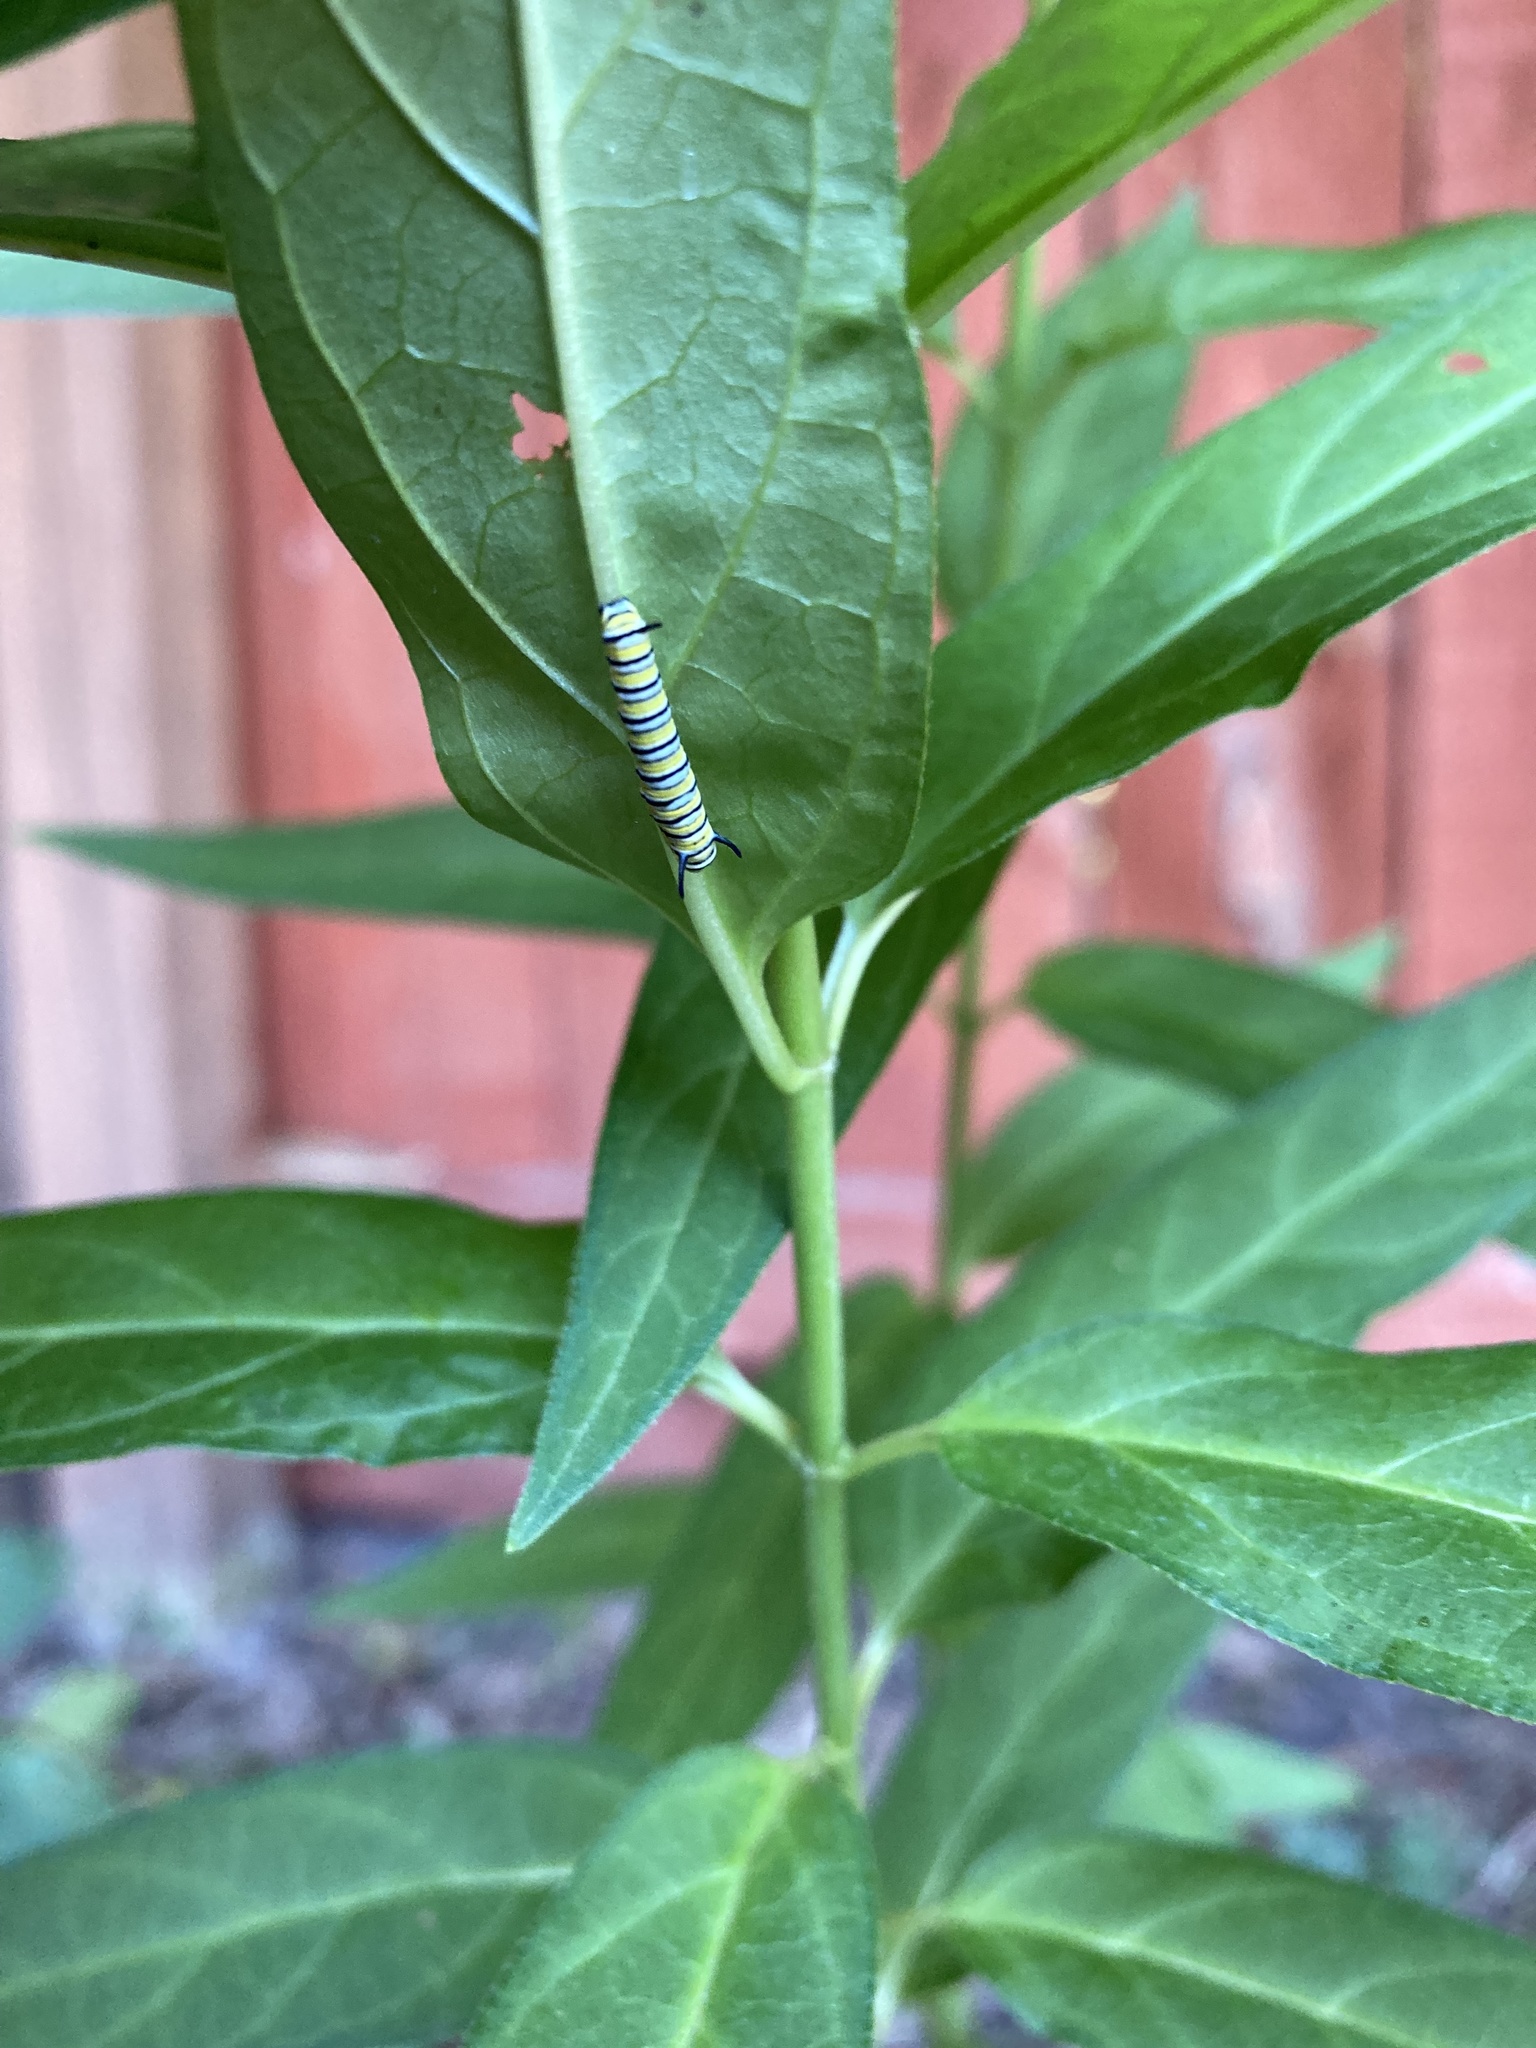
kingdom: Animalia
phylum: Arthropoda
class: Insecta
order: Lepidoptera
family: Nymphalidae
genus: Danaus
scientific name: Danaus plexippus
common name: Monarch
